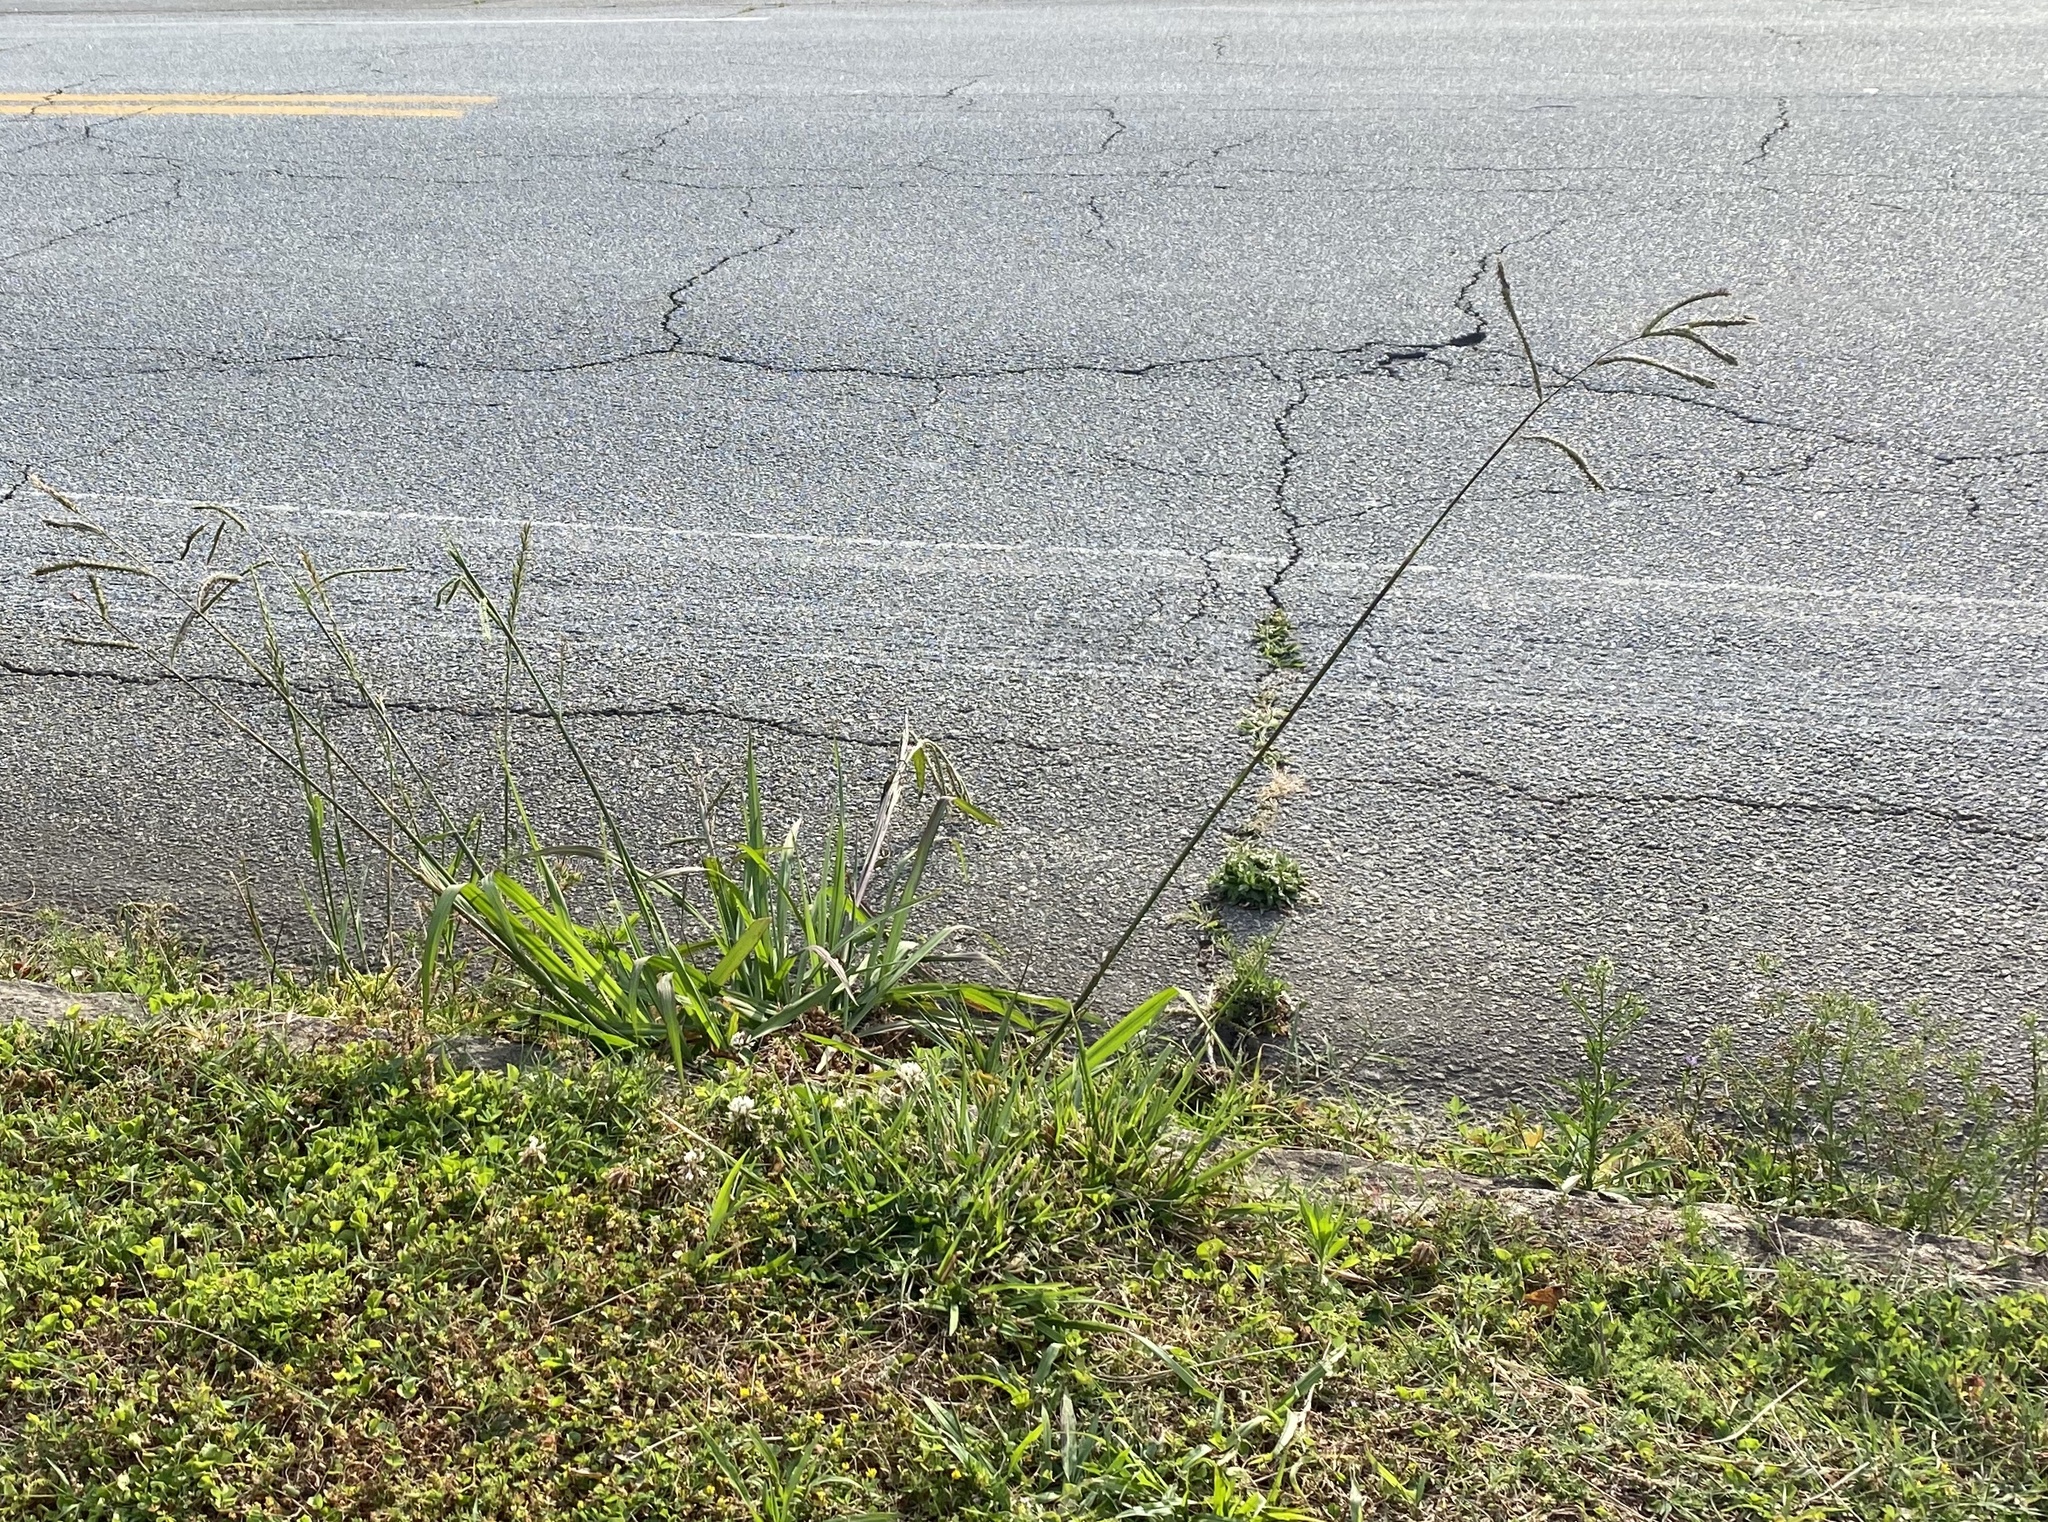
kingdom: Plantae
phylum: Tracheophyta
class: Liliopsida
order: Poales
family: Poaceae
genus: Paspalum
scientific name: Paspalum dilatatum
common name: Dallisgrass
